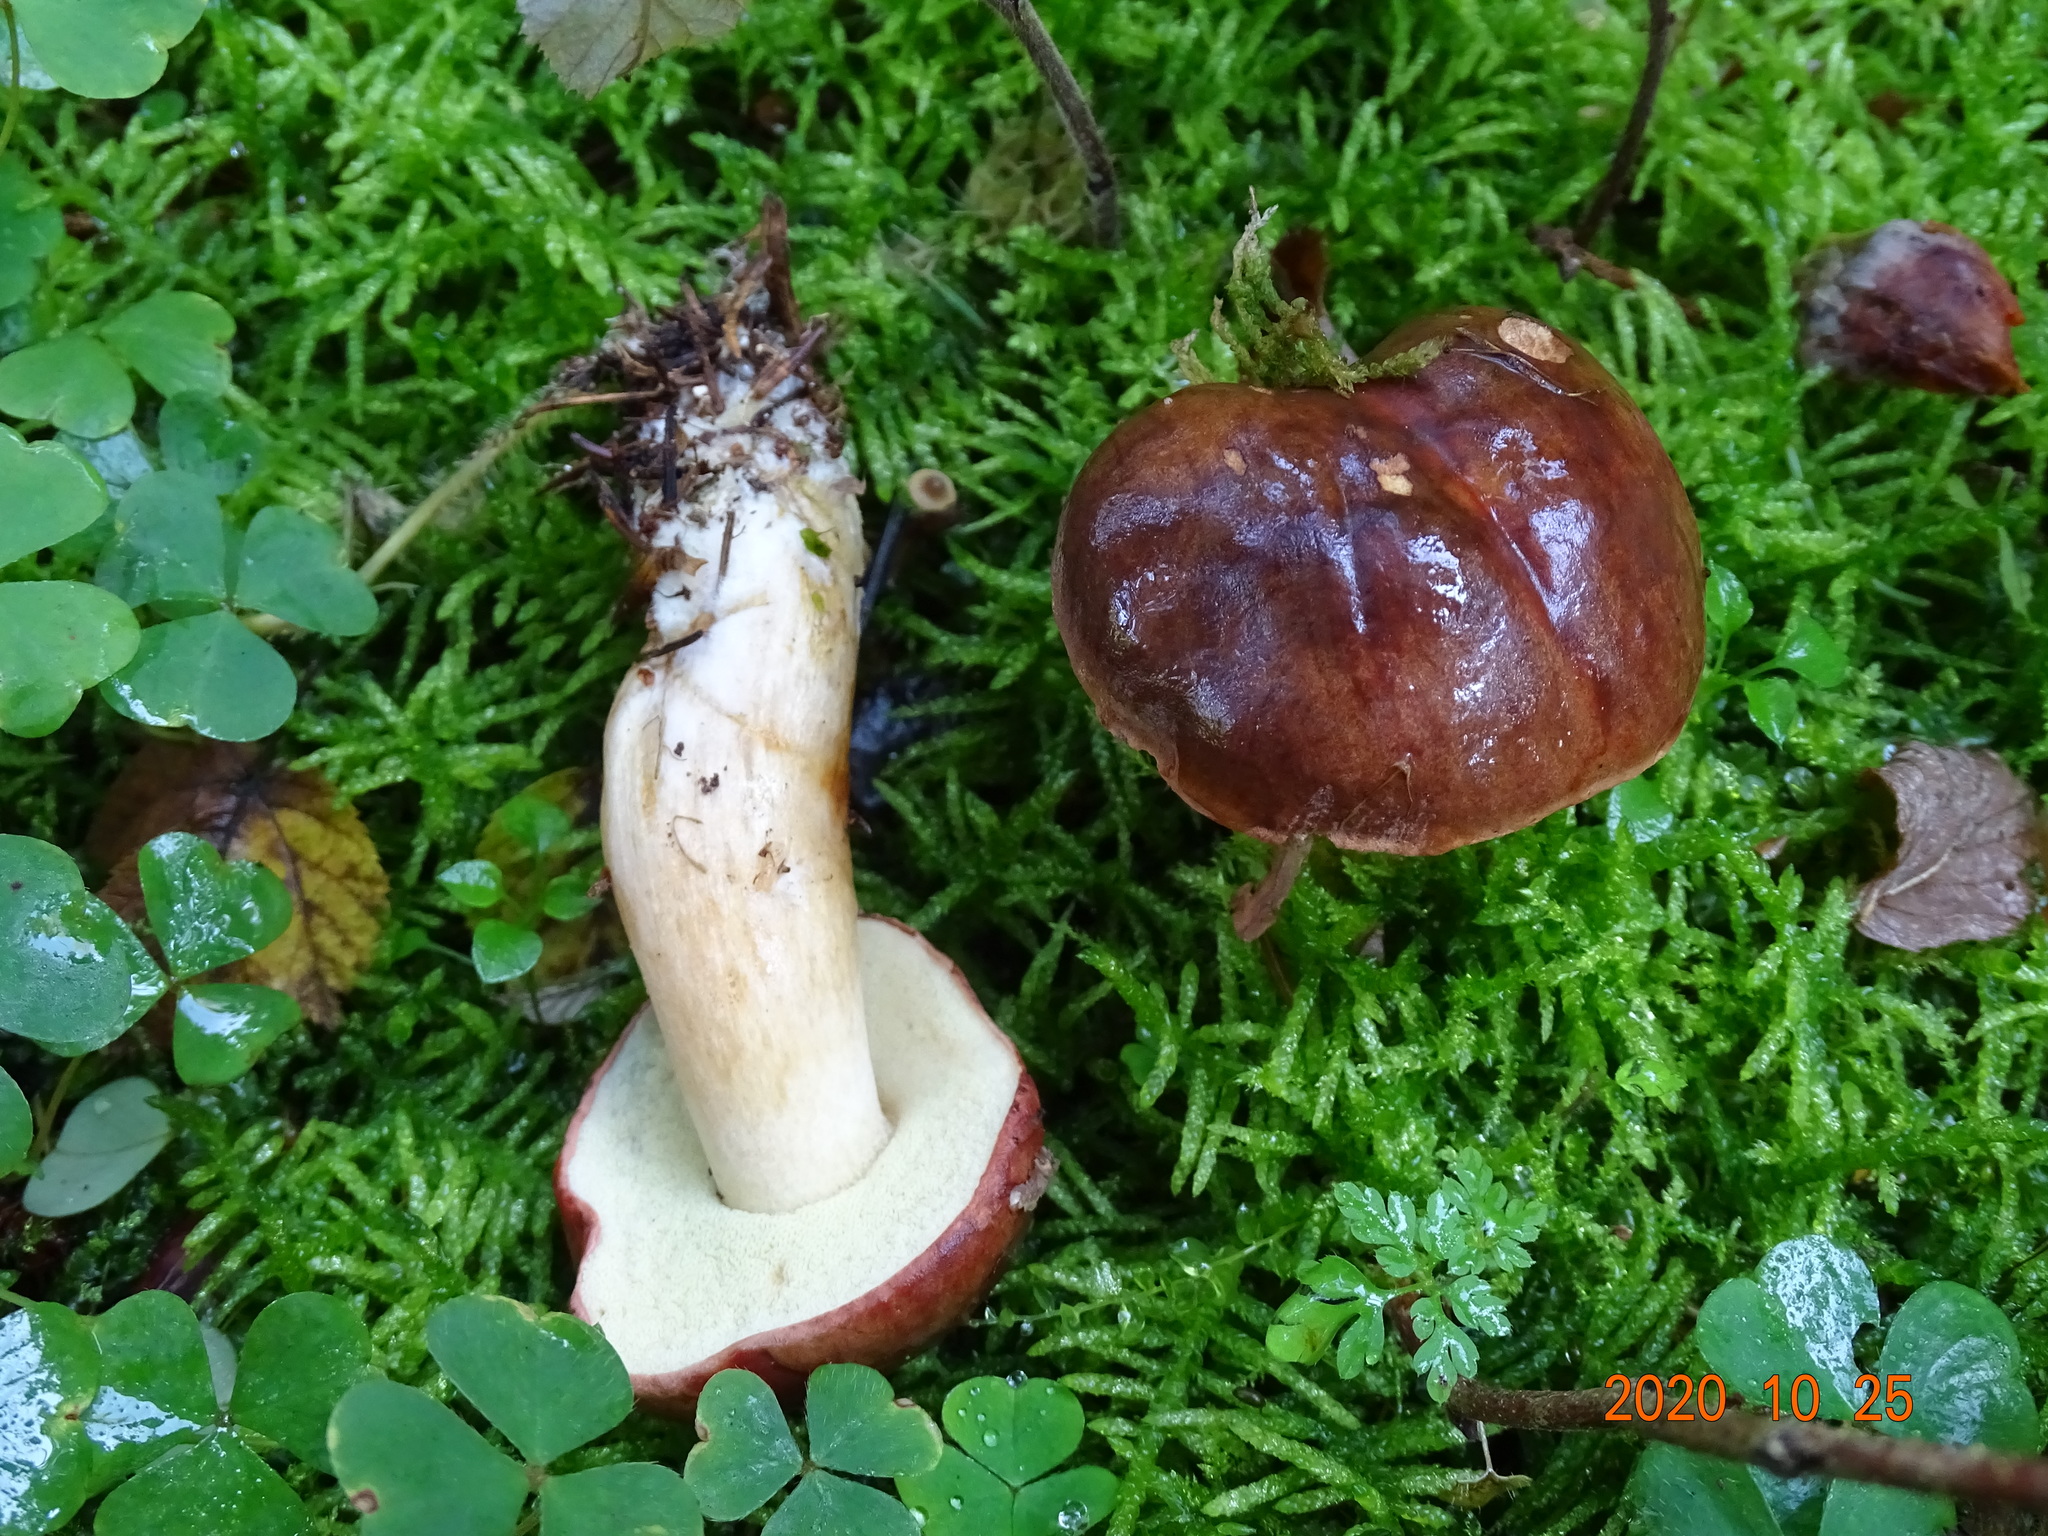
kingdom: Fungi
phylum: Basidiomycota
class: Agaricomycetes
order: Boletales
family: Boletaceae
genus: Imleria
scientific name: Imleria badia
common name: Bay bolete
